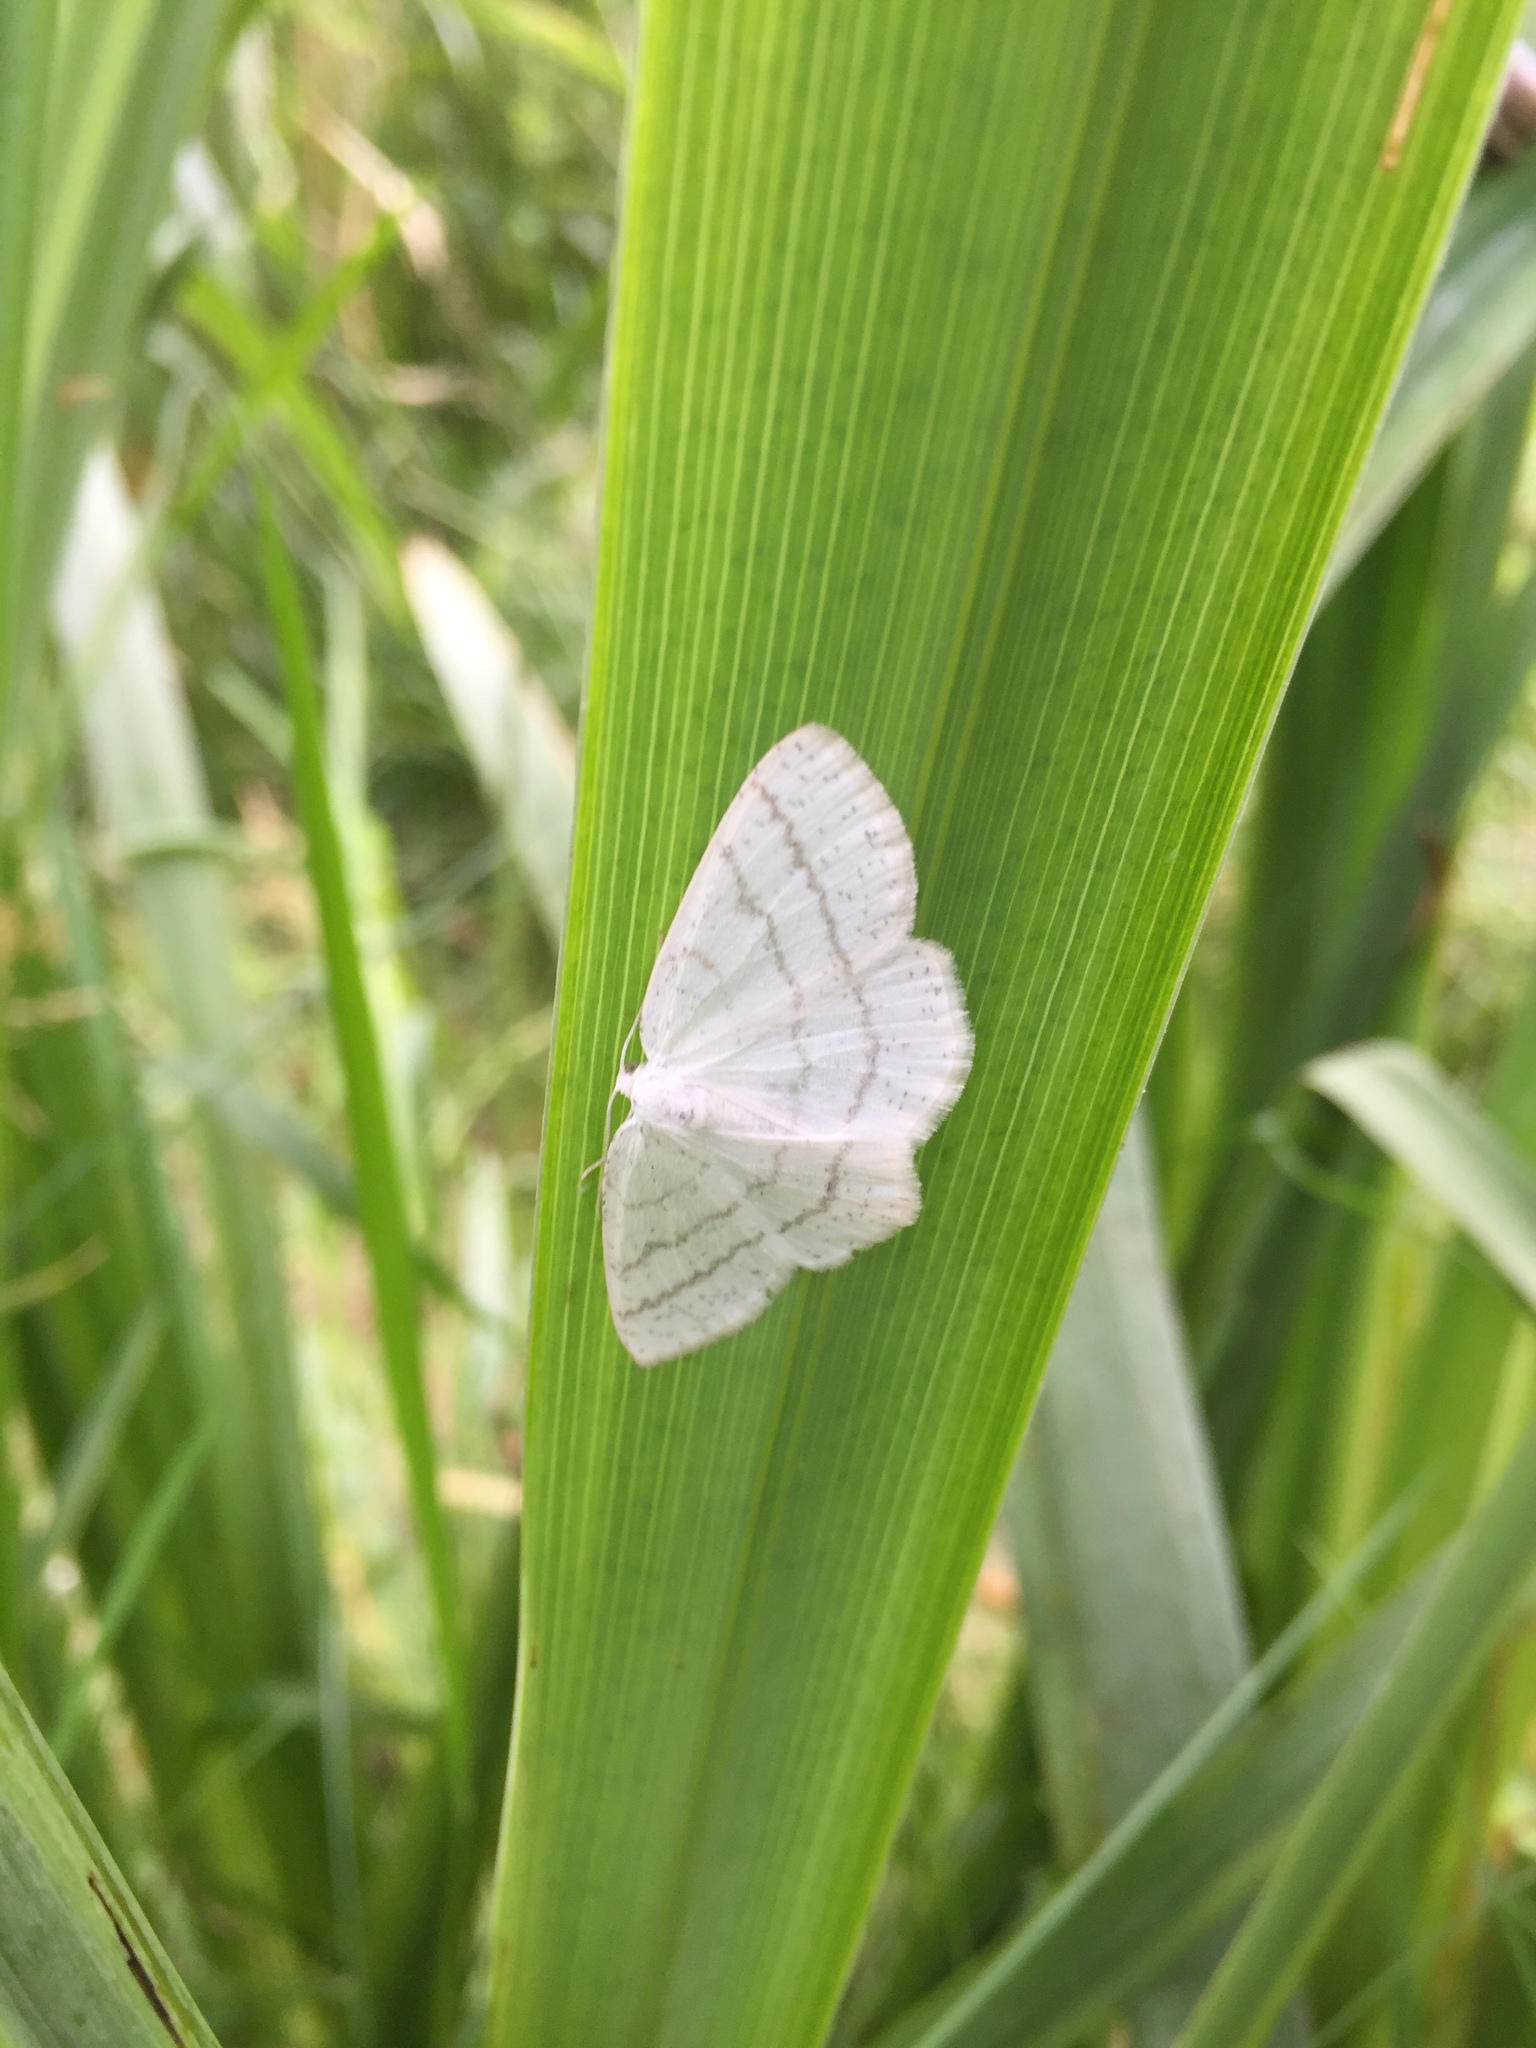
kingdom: Animalia
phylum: Arthropoda
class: Insecta
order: Lepidoptera
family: Geometridae
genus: Cabera
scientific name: Cabera pusaria
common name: Common white wave
